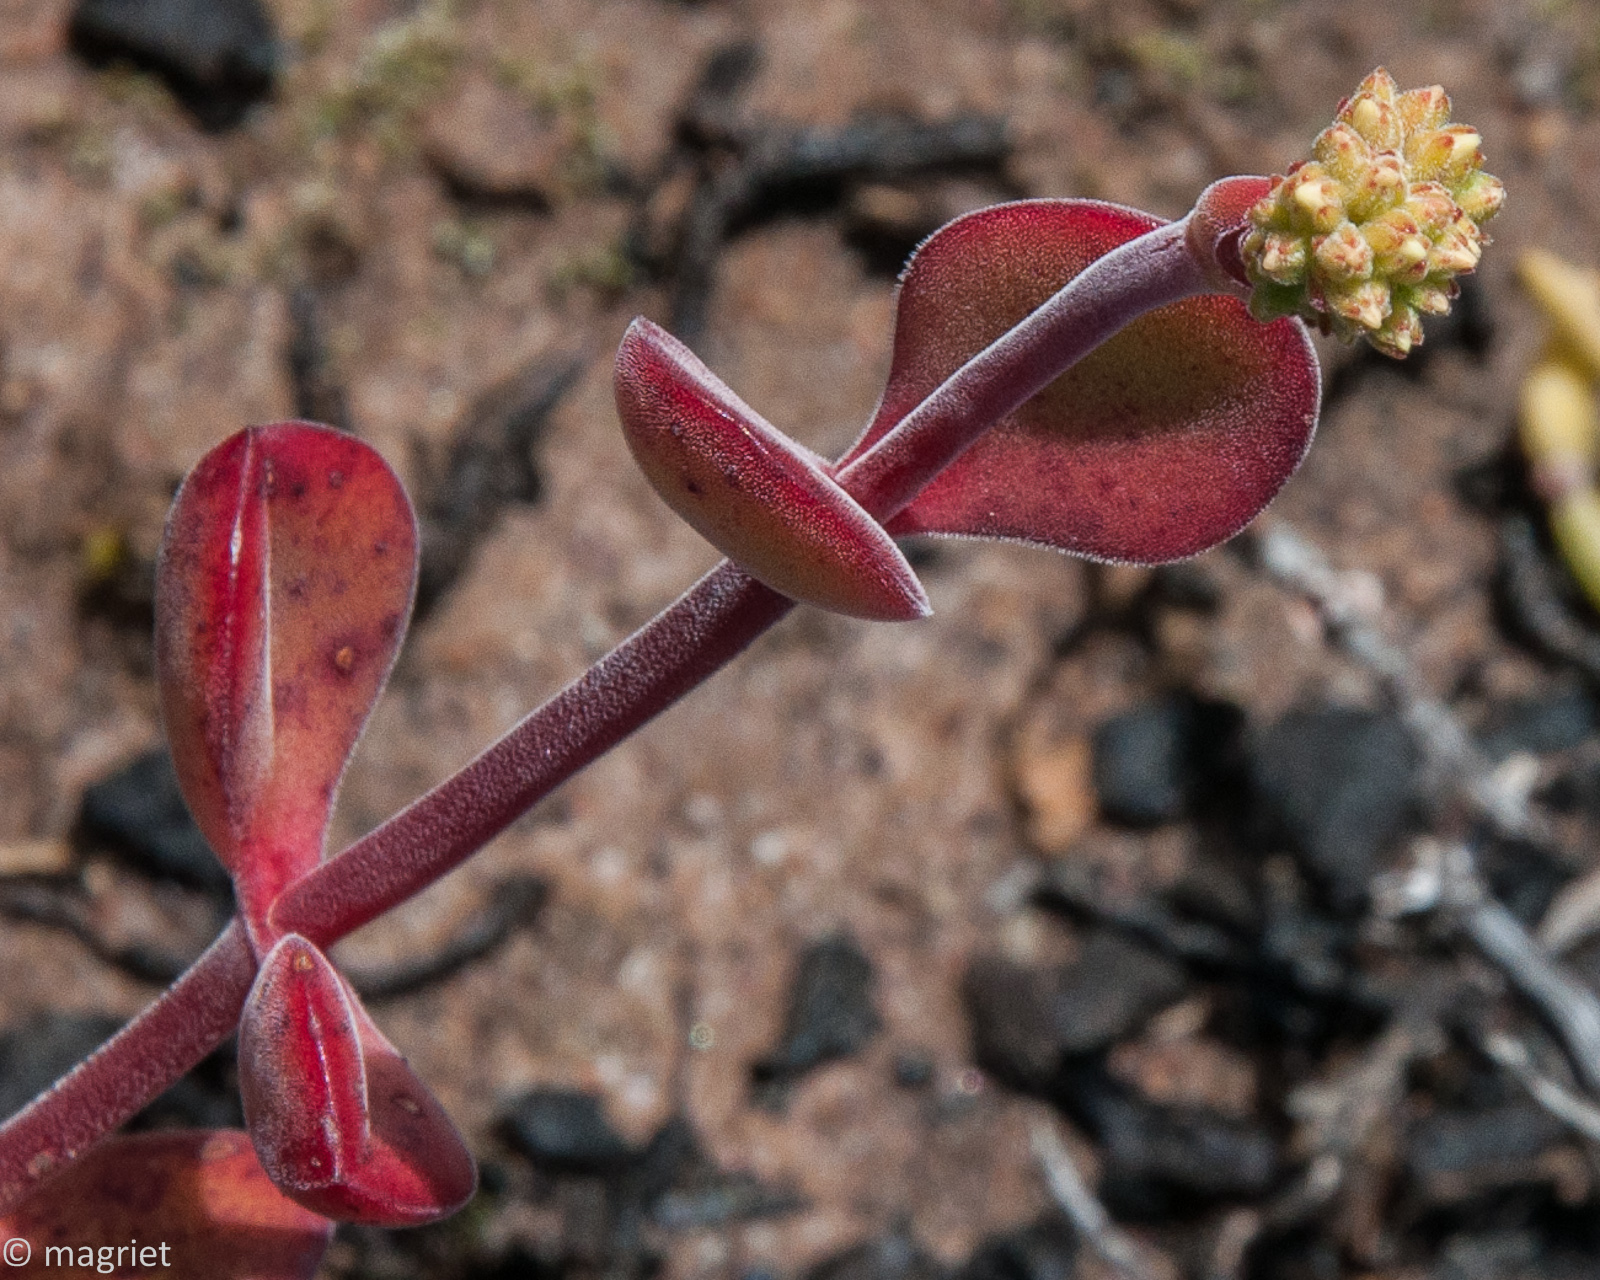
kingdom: Plantae
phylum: Tracheophyta
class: Magnoliopsida
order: Saxifragales
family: Crassulaceae
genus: Crassula
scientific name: Crassula atropurpurea
